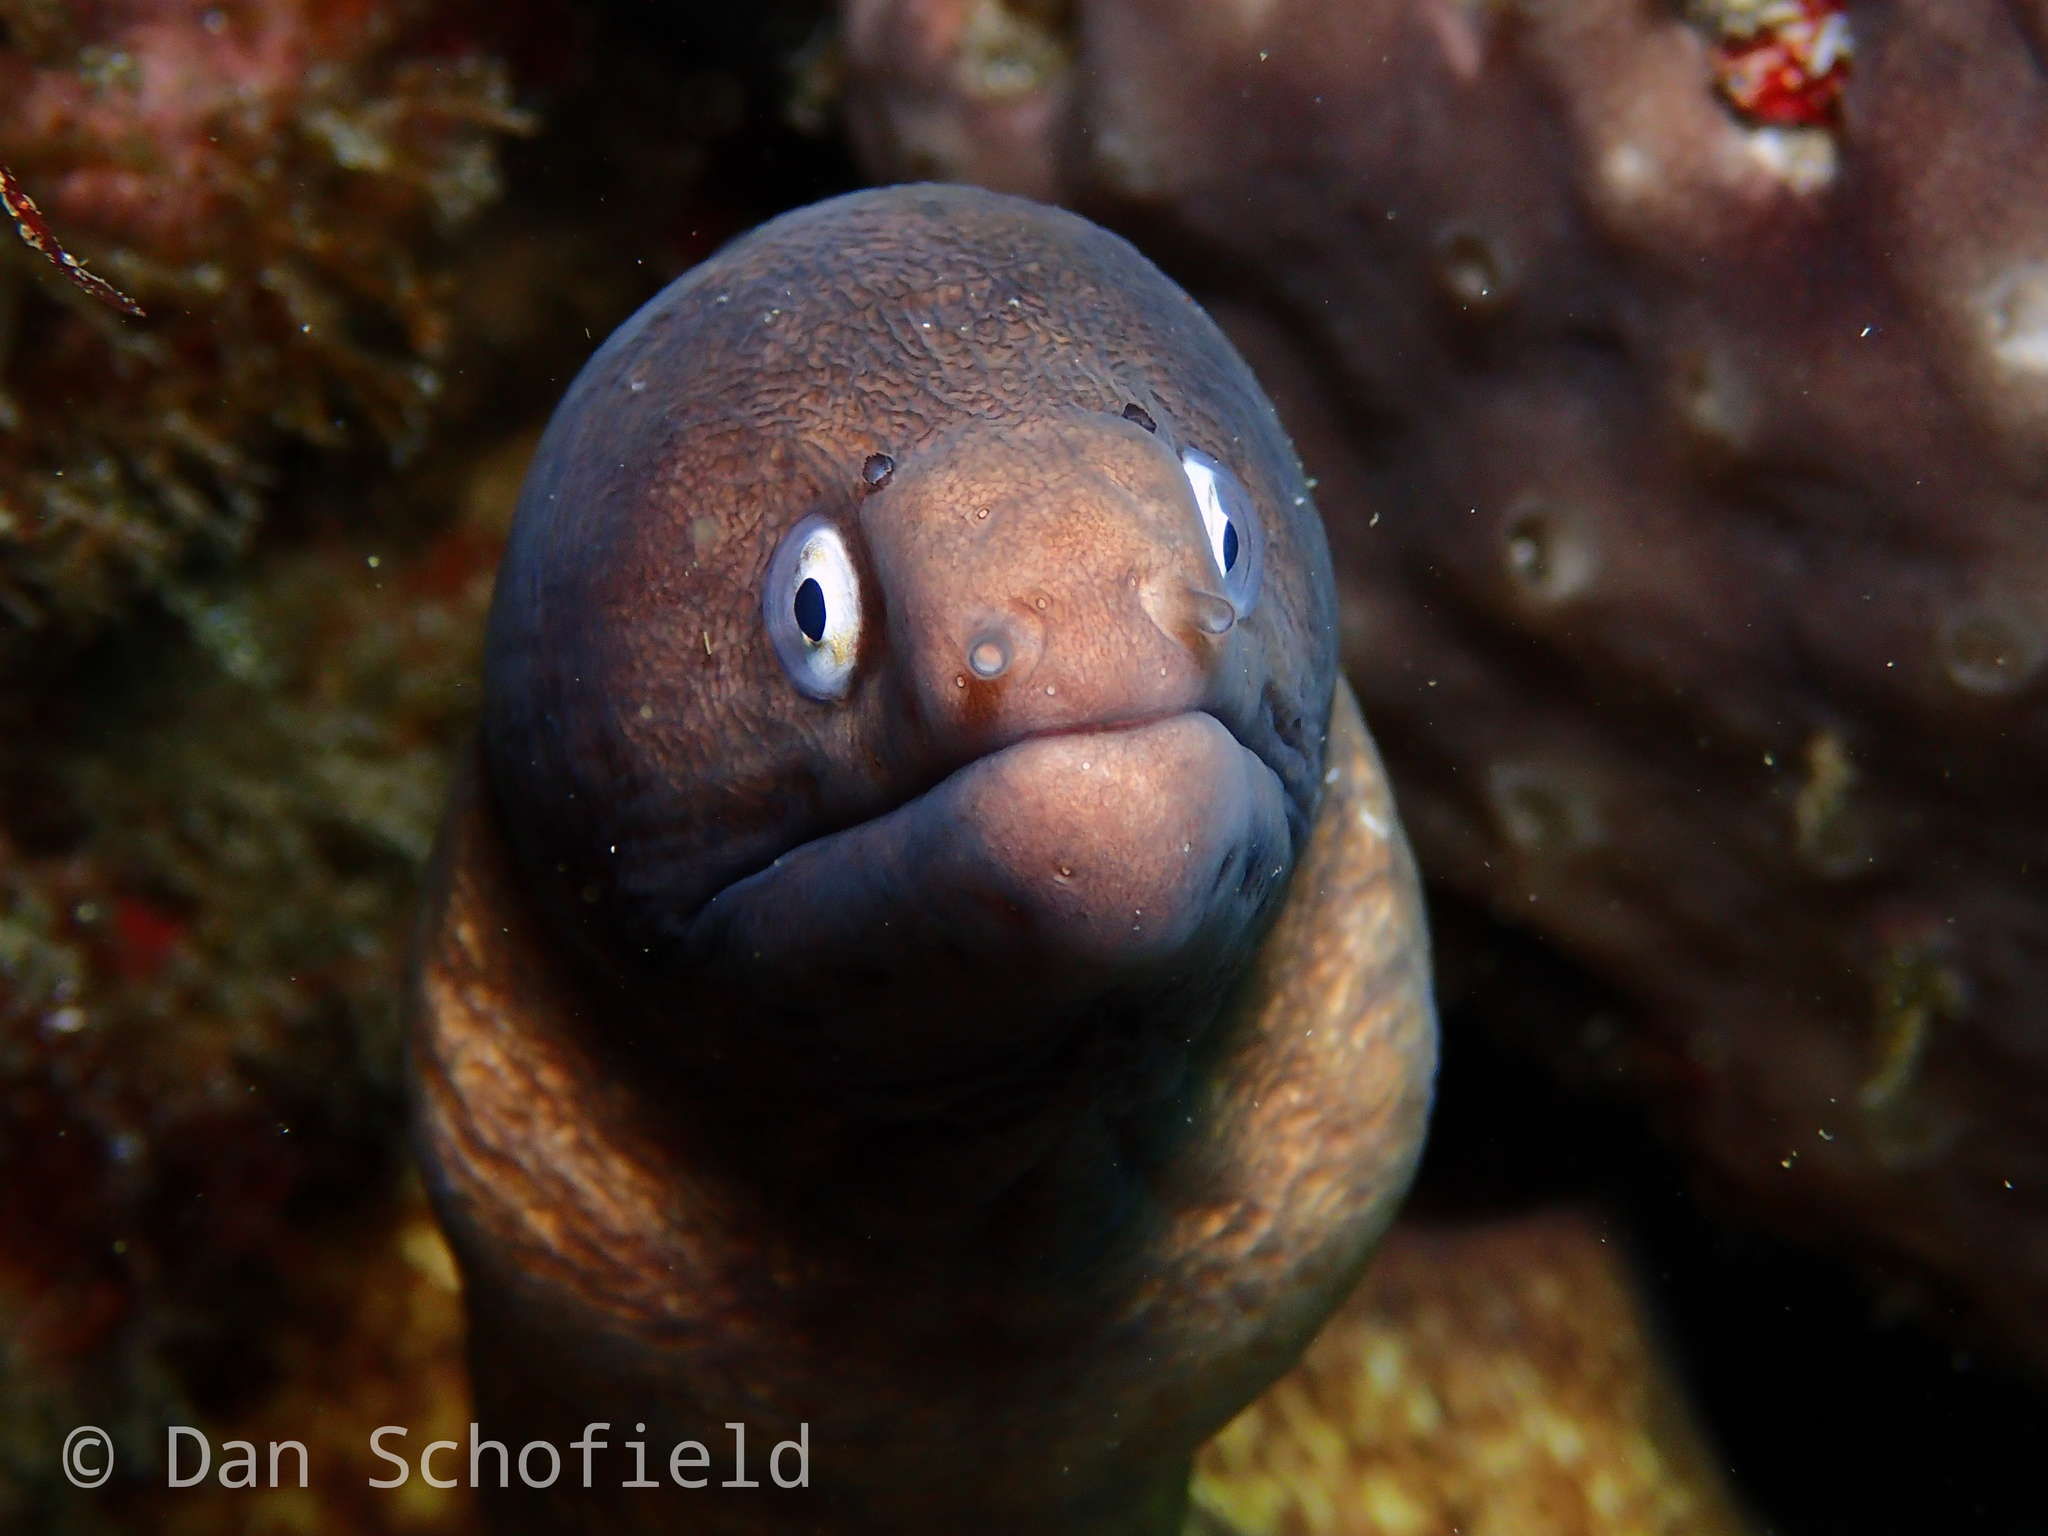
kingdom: Animalia
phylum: Chordata
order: Anguilliformes
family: Muraenidae
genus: Gymnothorax
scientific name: Gymnothorax thyrsoideus
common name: Greyface moray
